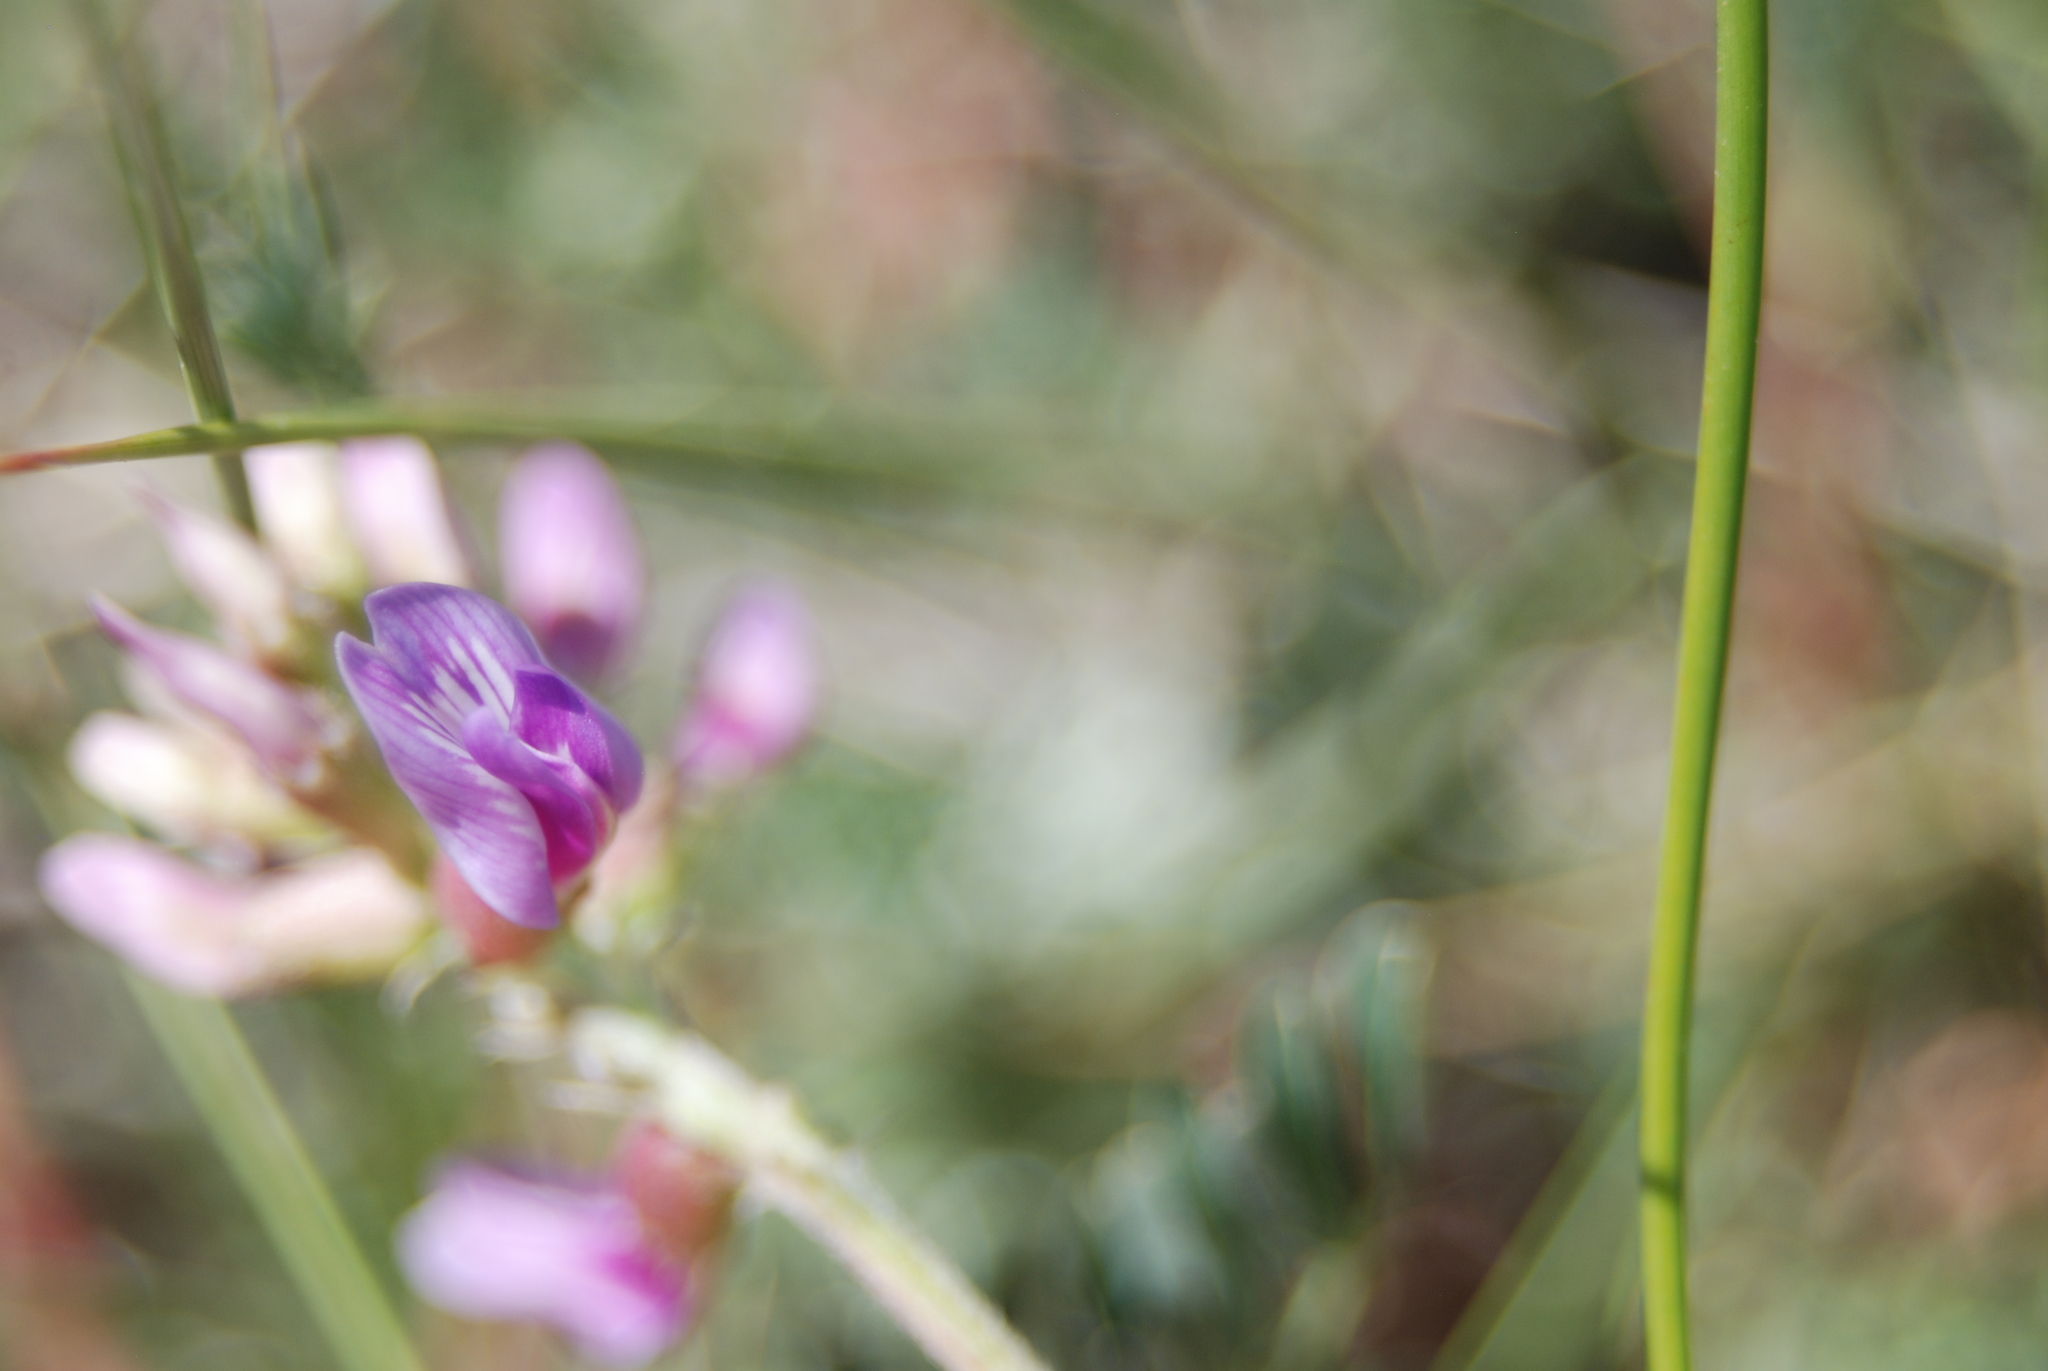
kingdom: Plantae
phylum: Tracheophyta
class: Magnoliopsida
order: Fabales
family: Fabaceae
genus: Astragalus
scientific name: Astragalus hallii
